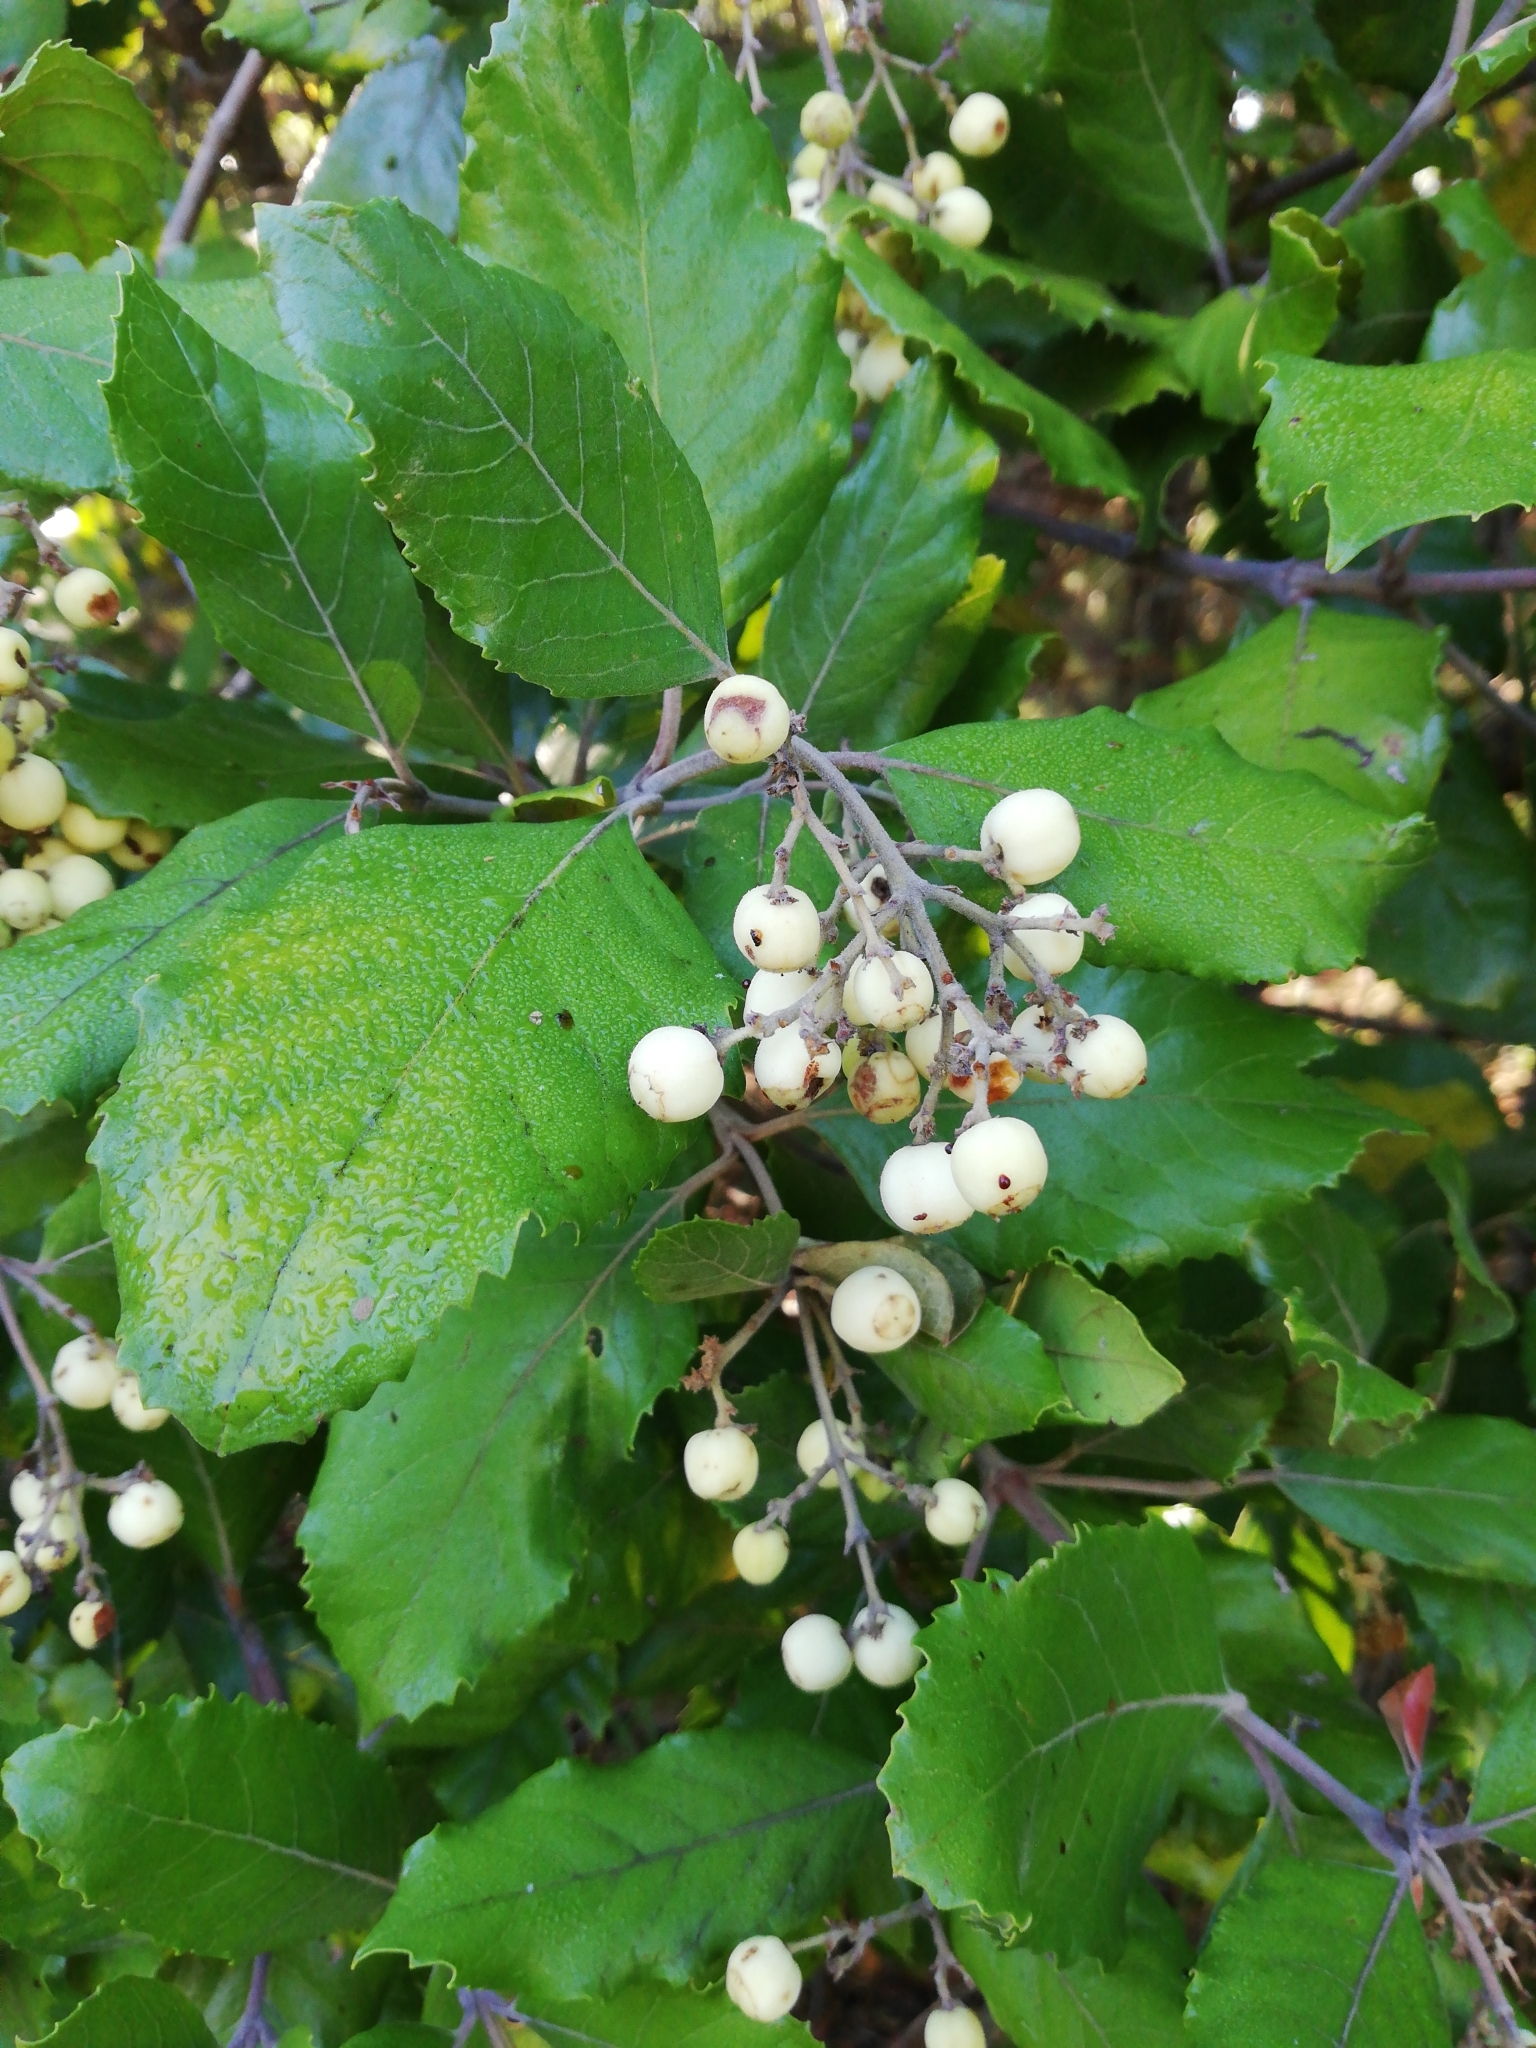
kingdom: Plantae
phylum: Tracheophyta
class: Magnoliopsida
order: Cornales
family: Curtisiaceae
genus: Curtisia
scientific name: Curtisia dentata
